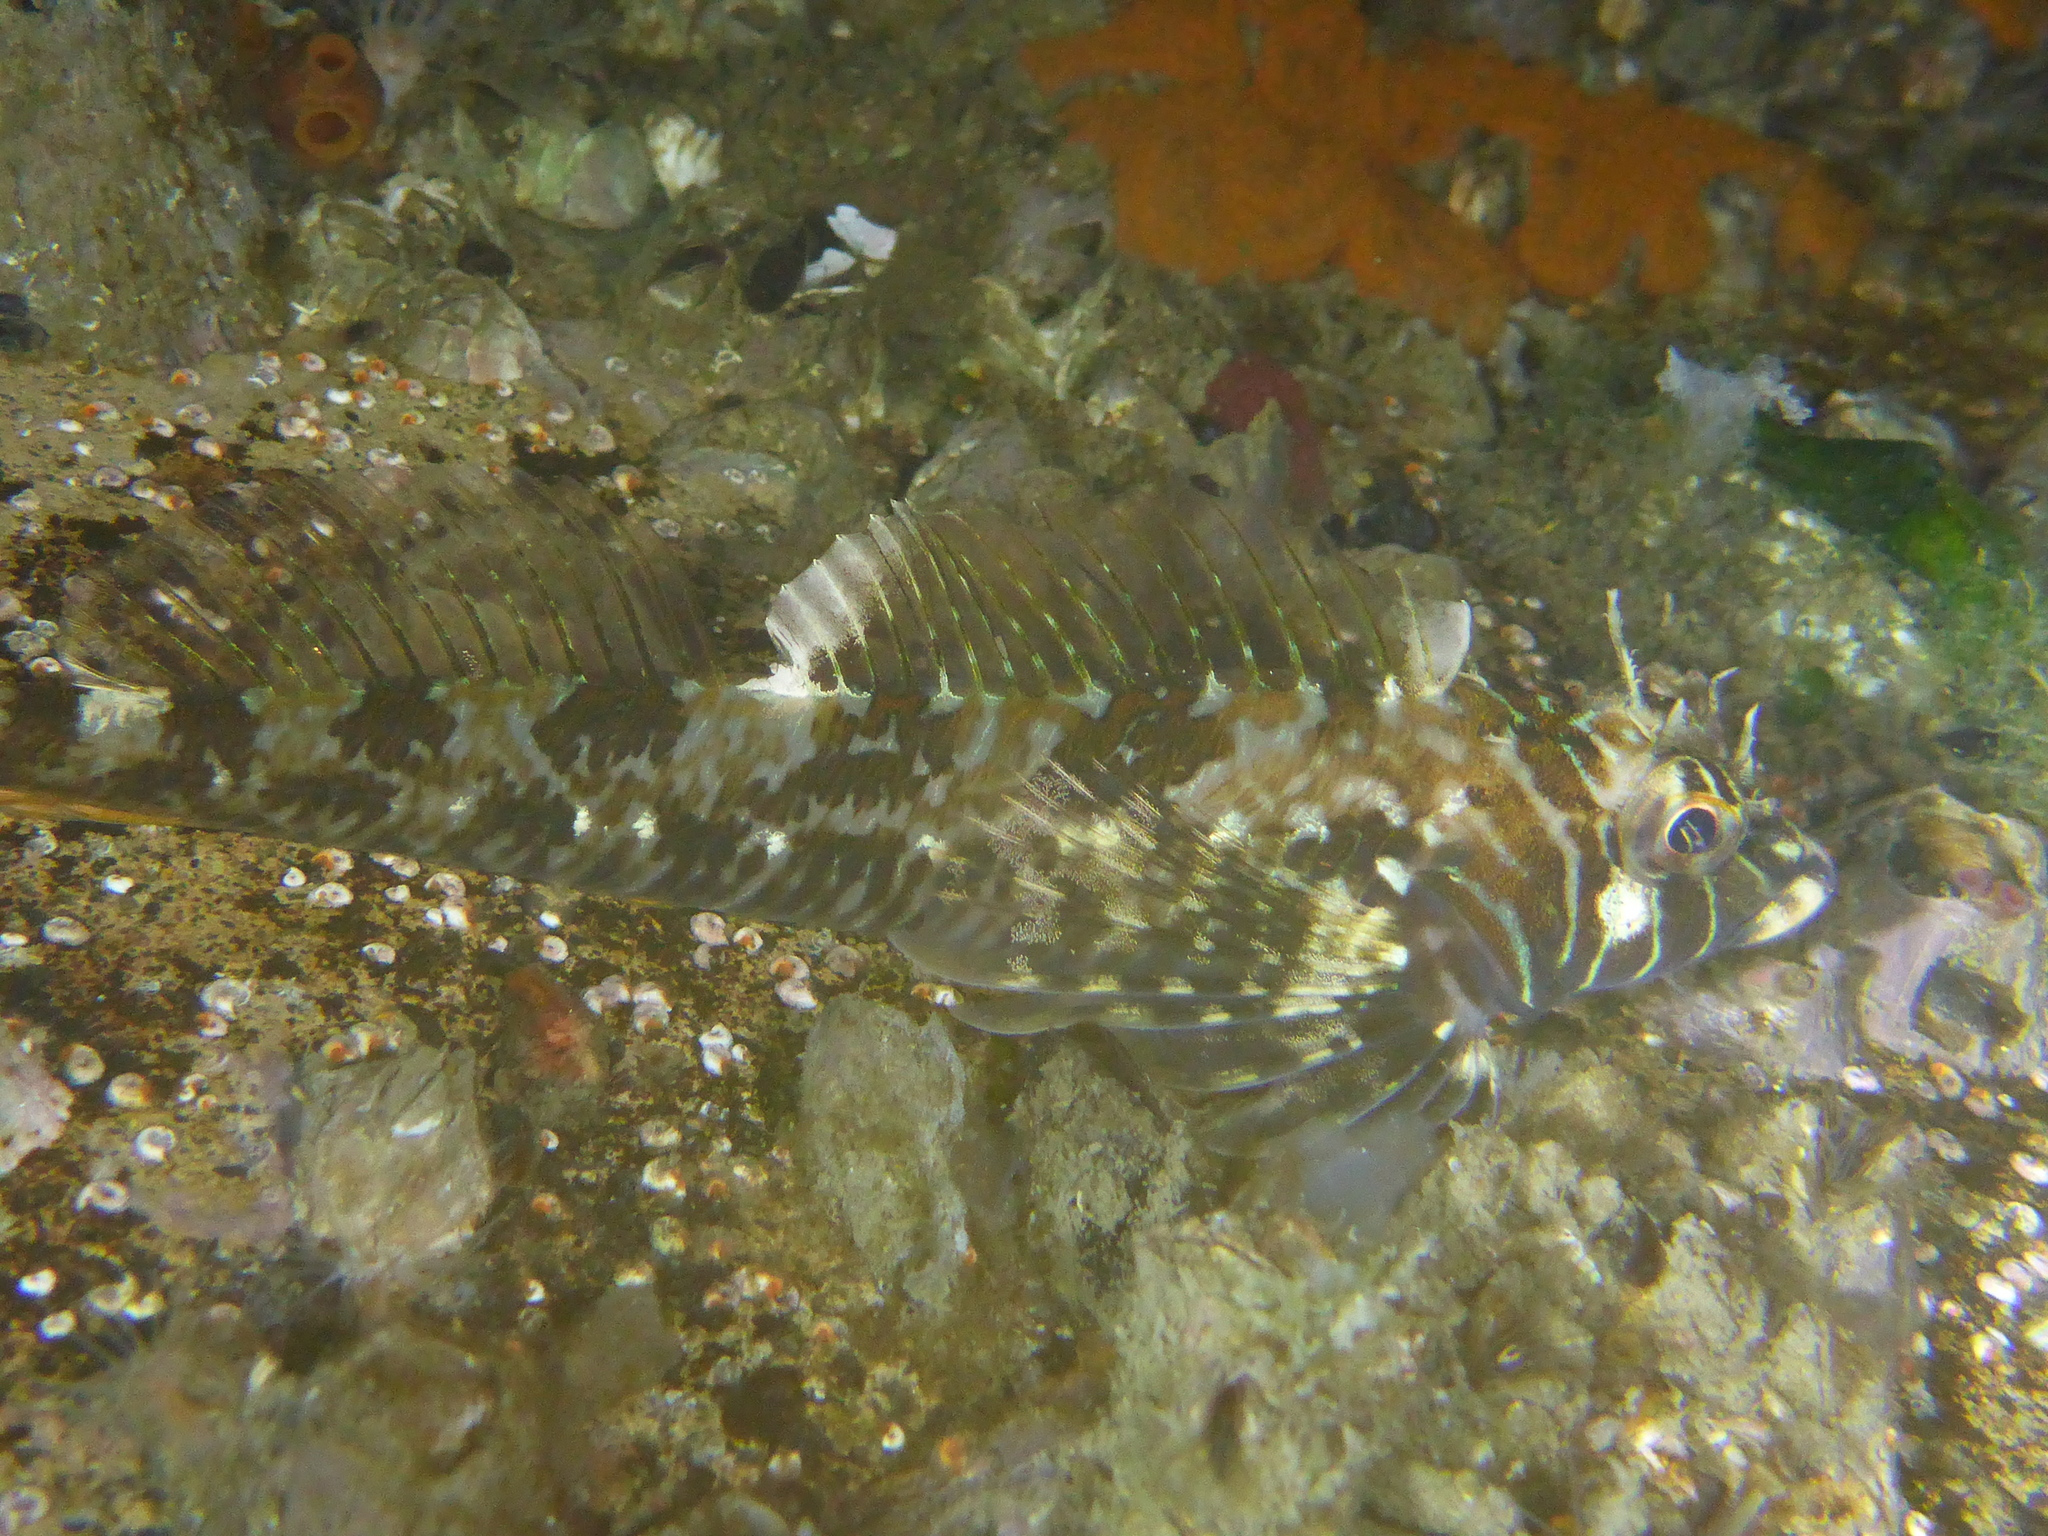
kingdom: Animalia
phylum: Chordata
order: Scorpaeniformes
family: Cottidae
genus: Jordania
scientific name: Jordania zonope
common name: Longfin sculpin
